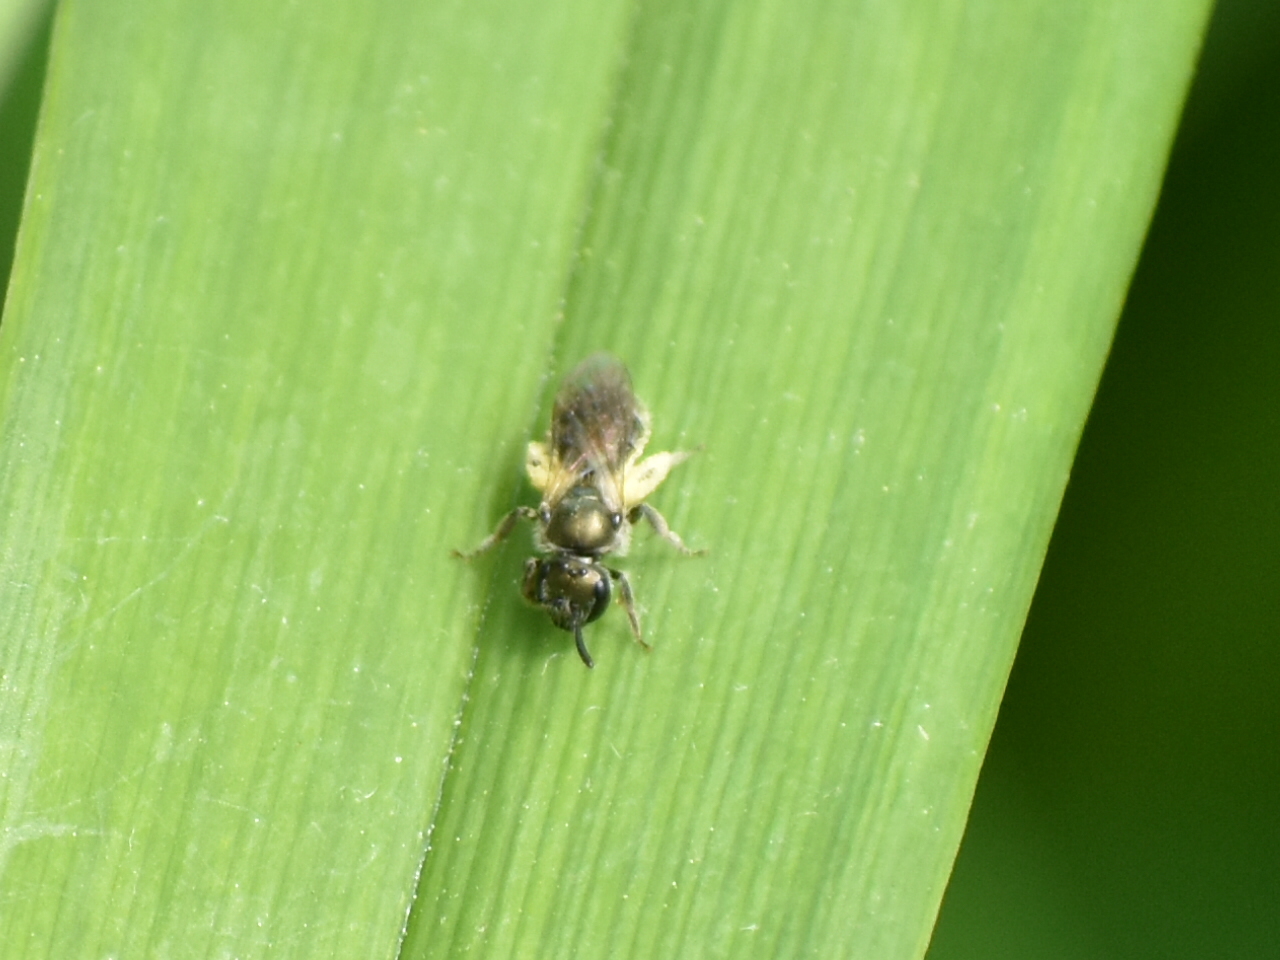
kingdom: Animalia
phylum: Arthropoda
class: Insecta
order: Hymenoptera
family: Halictidae
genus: Dialictus
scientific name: Dialictus
